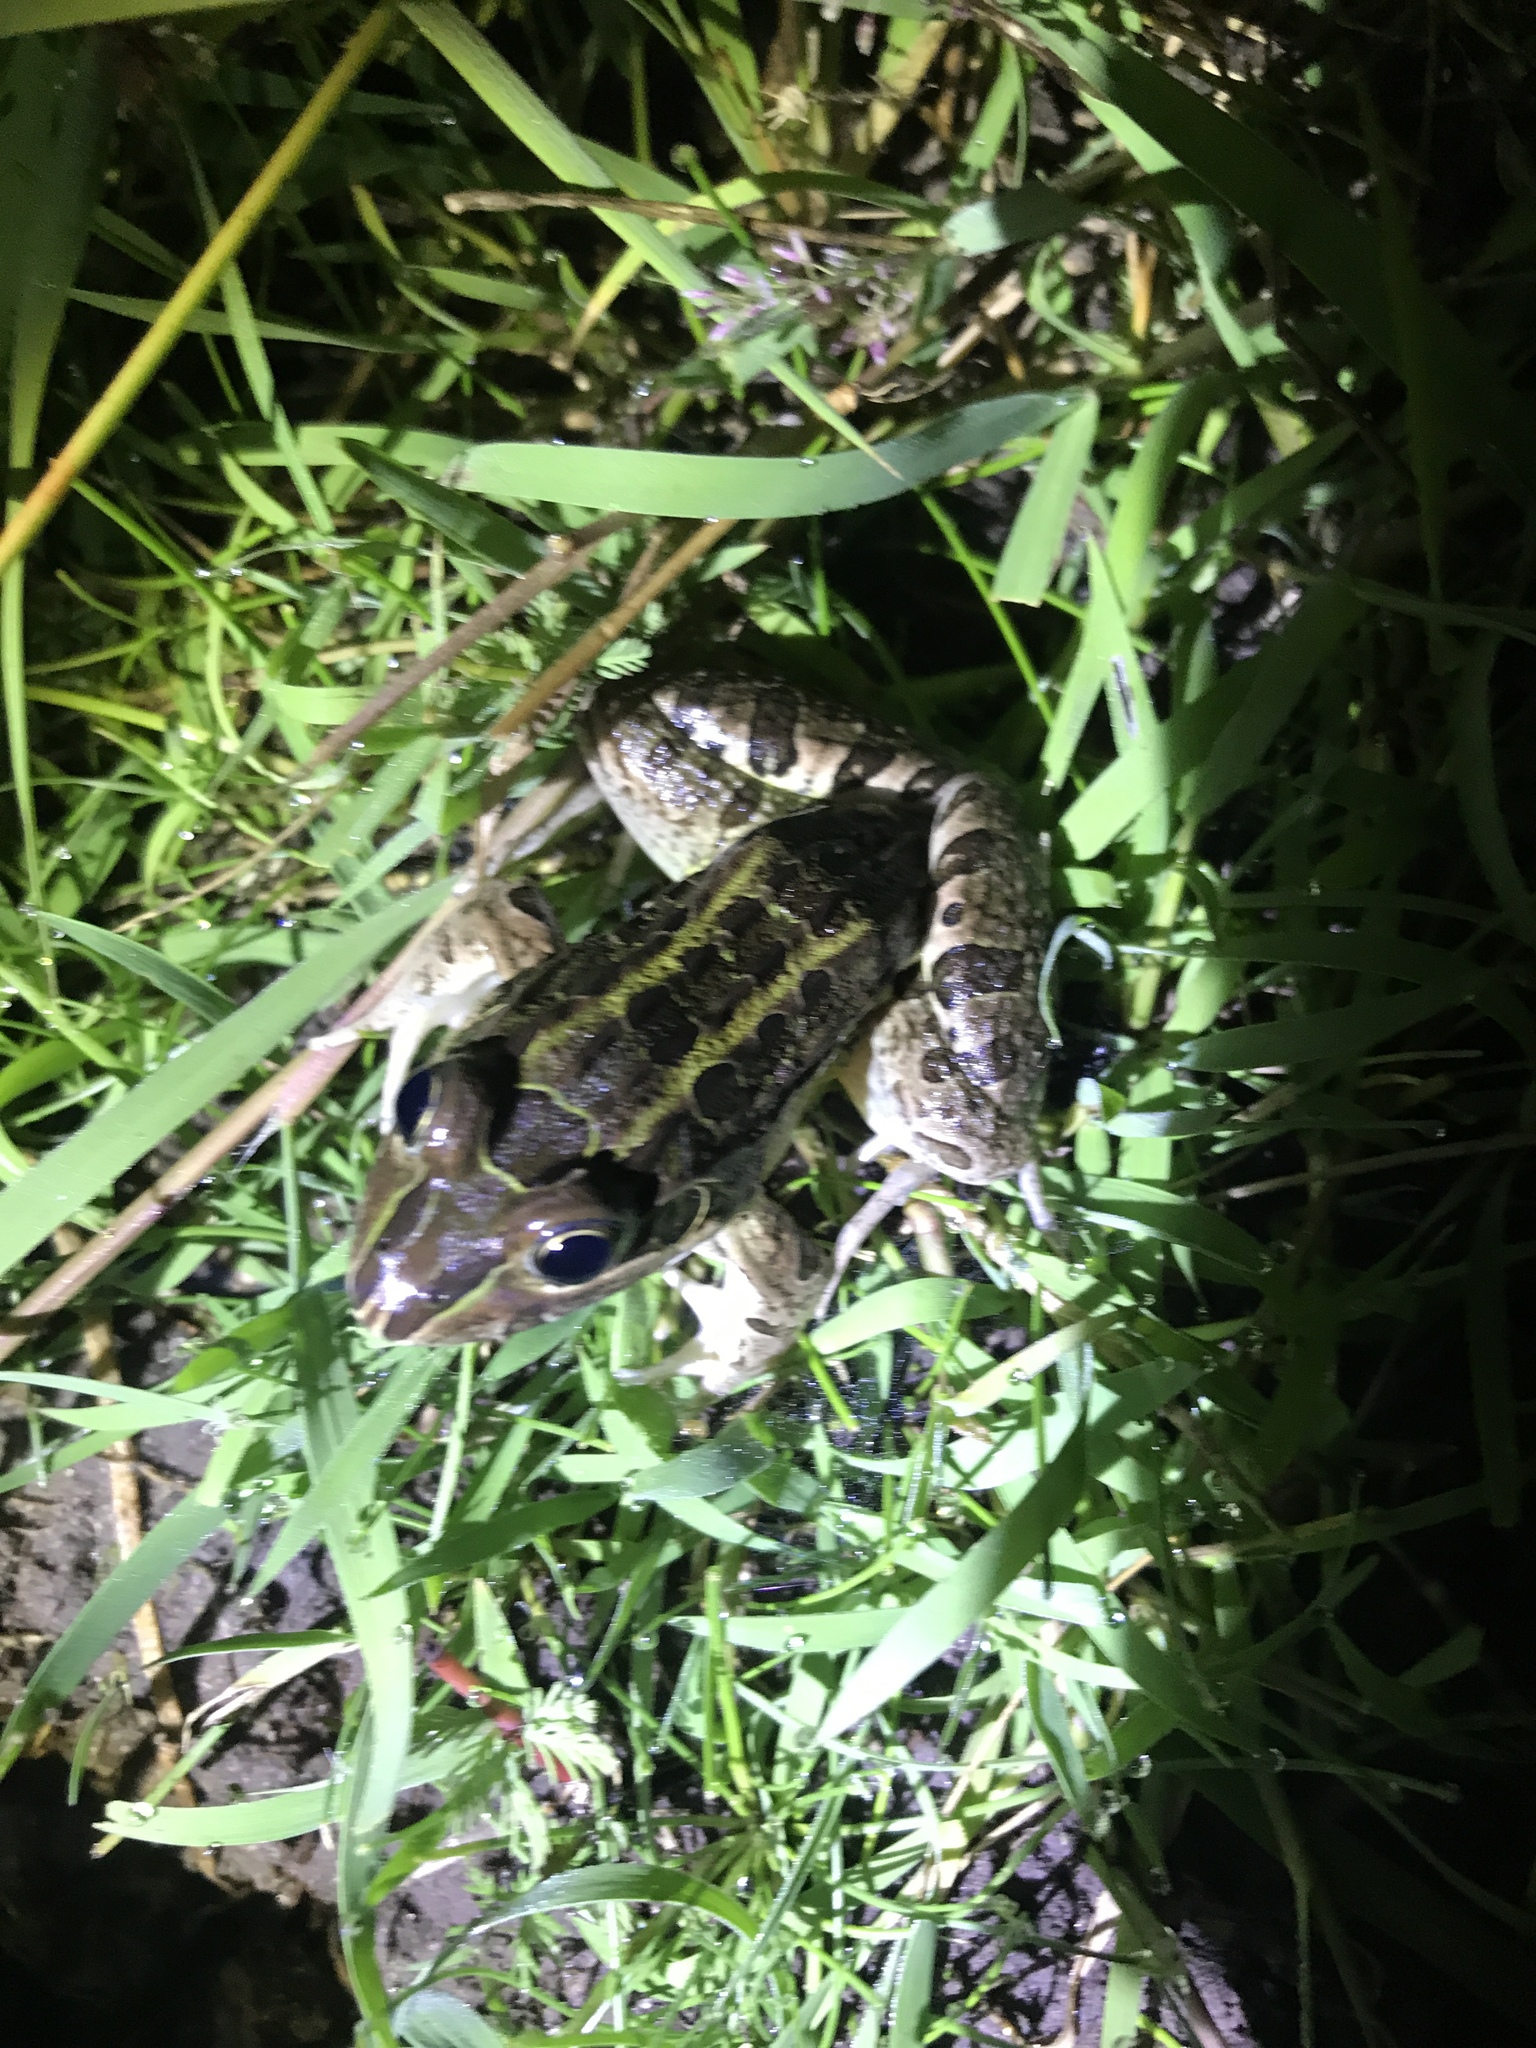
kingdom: Animalia
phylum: Chordata
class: Amphibia
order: Anura
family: Leptodactylidae
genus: Leptodactylus
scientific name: Leptodactylus luctator
